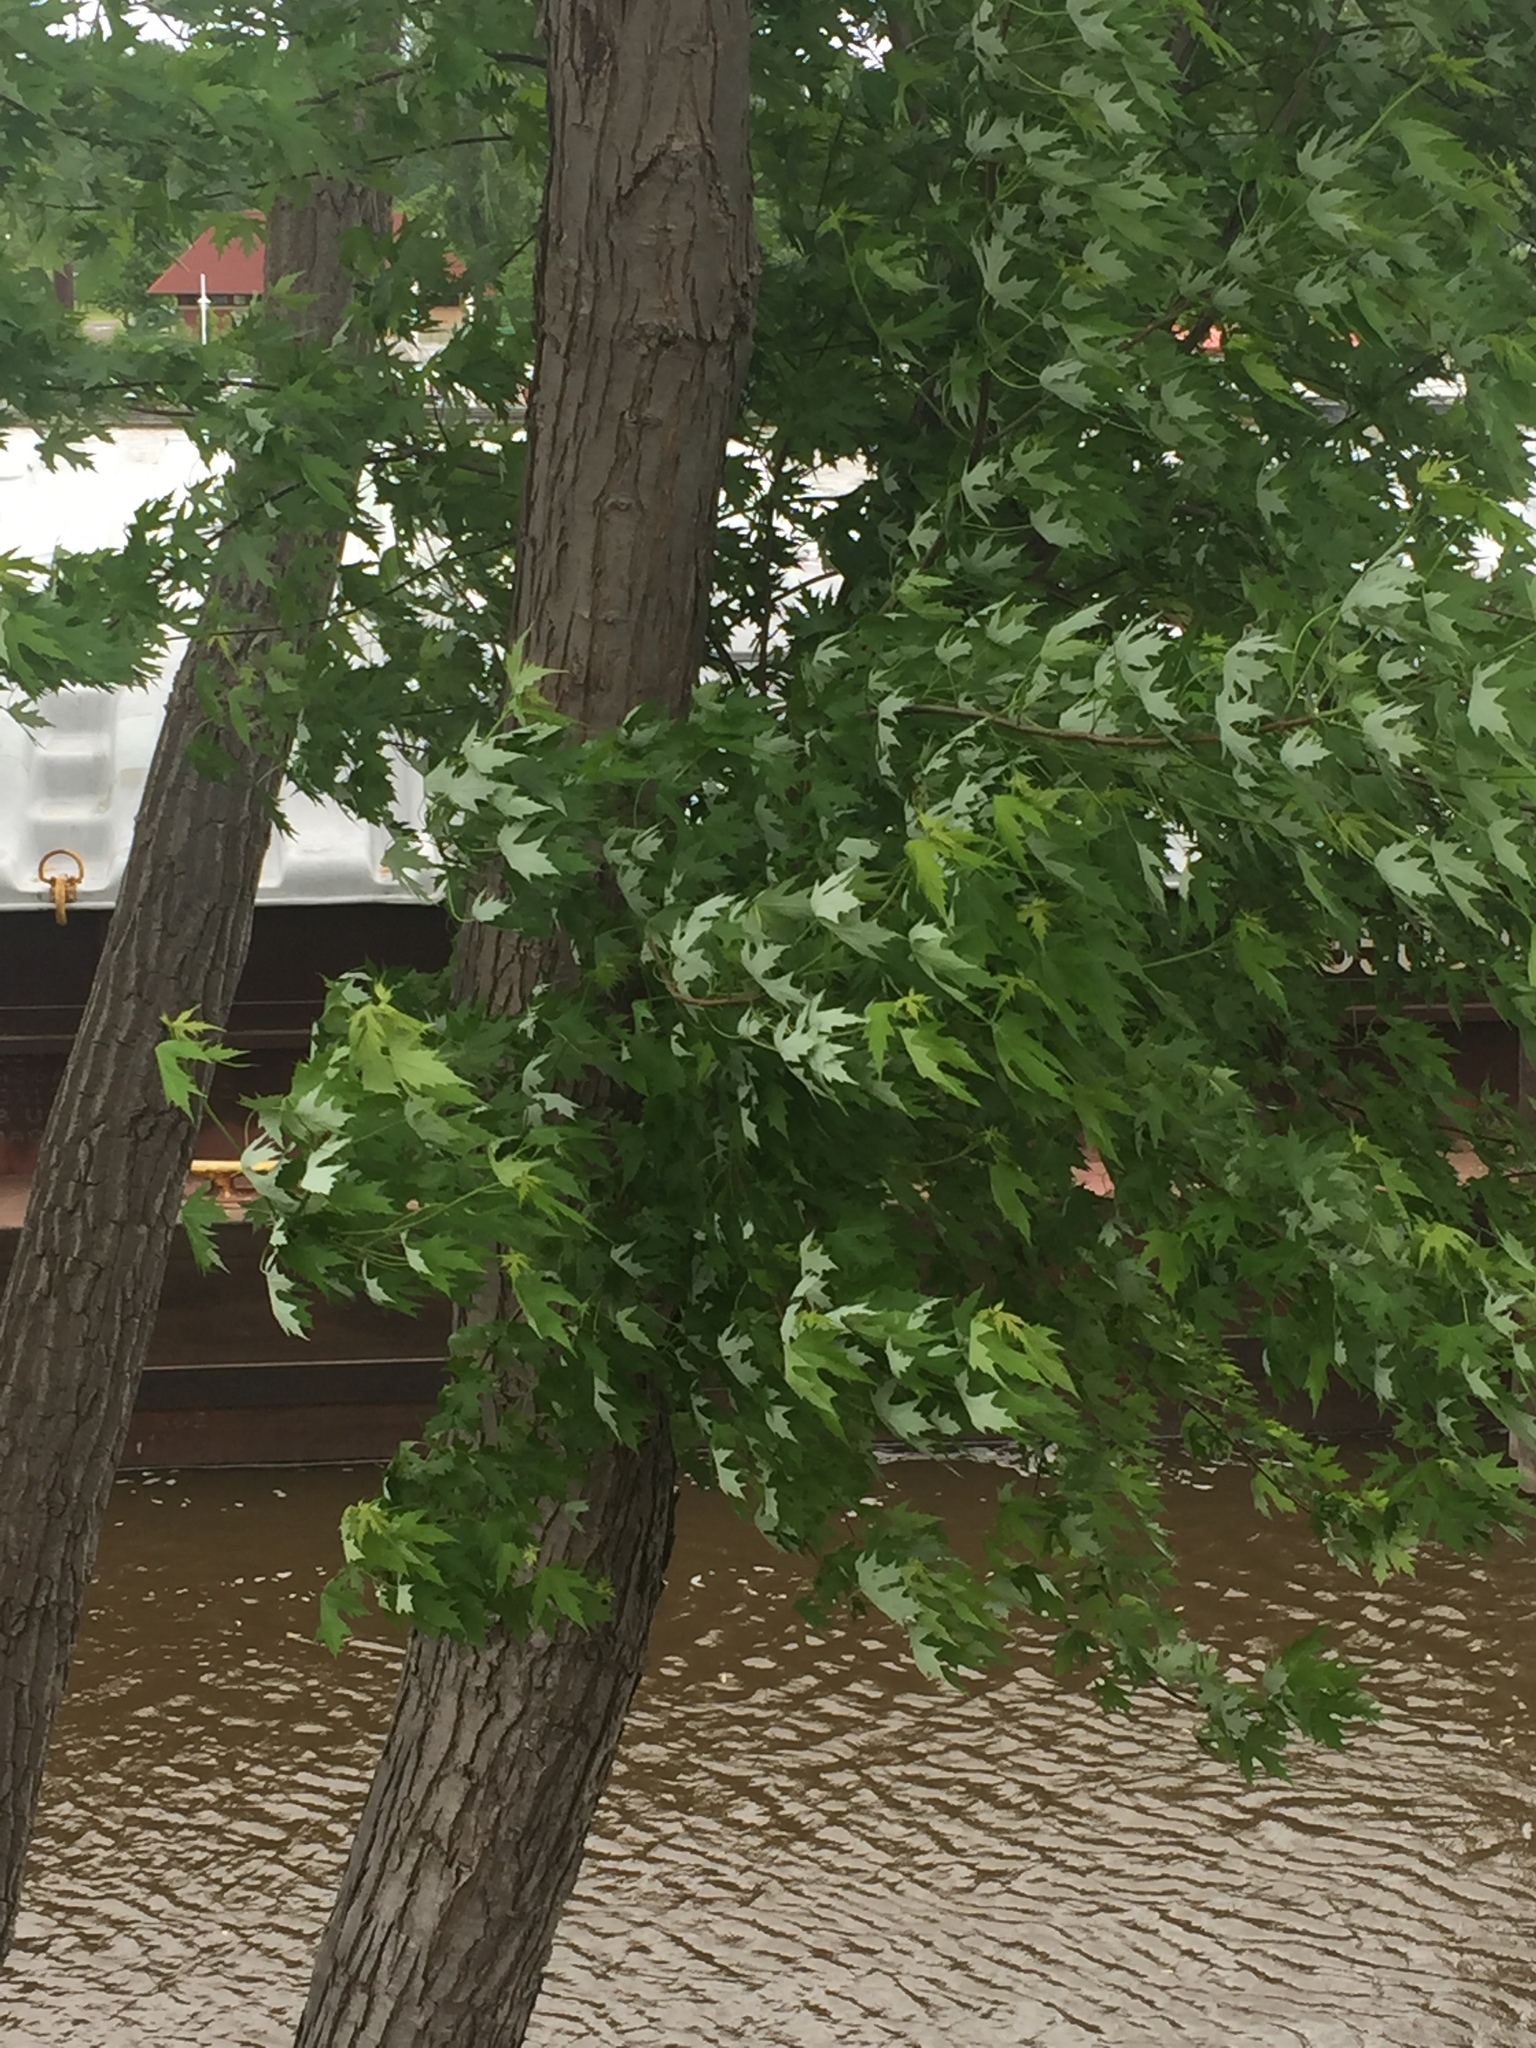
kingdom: Plantae
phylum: Tracheophyta
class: Magnoliopsida
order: Sapindales
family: Sapindaceae
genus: Acer
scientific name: Acer saccharinum
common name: Silver maple
